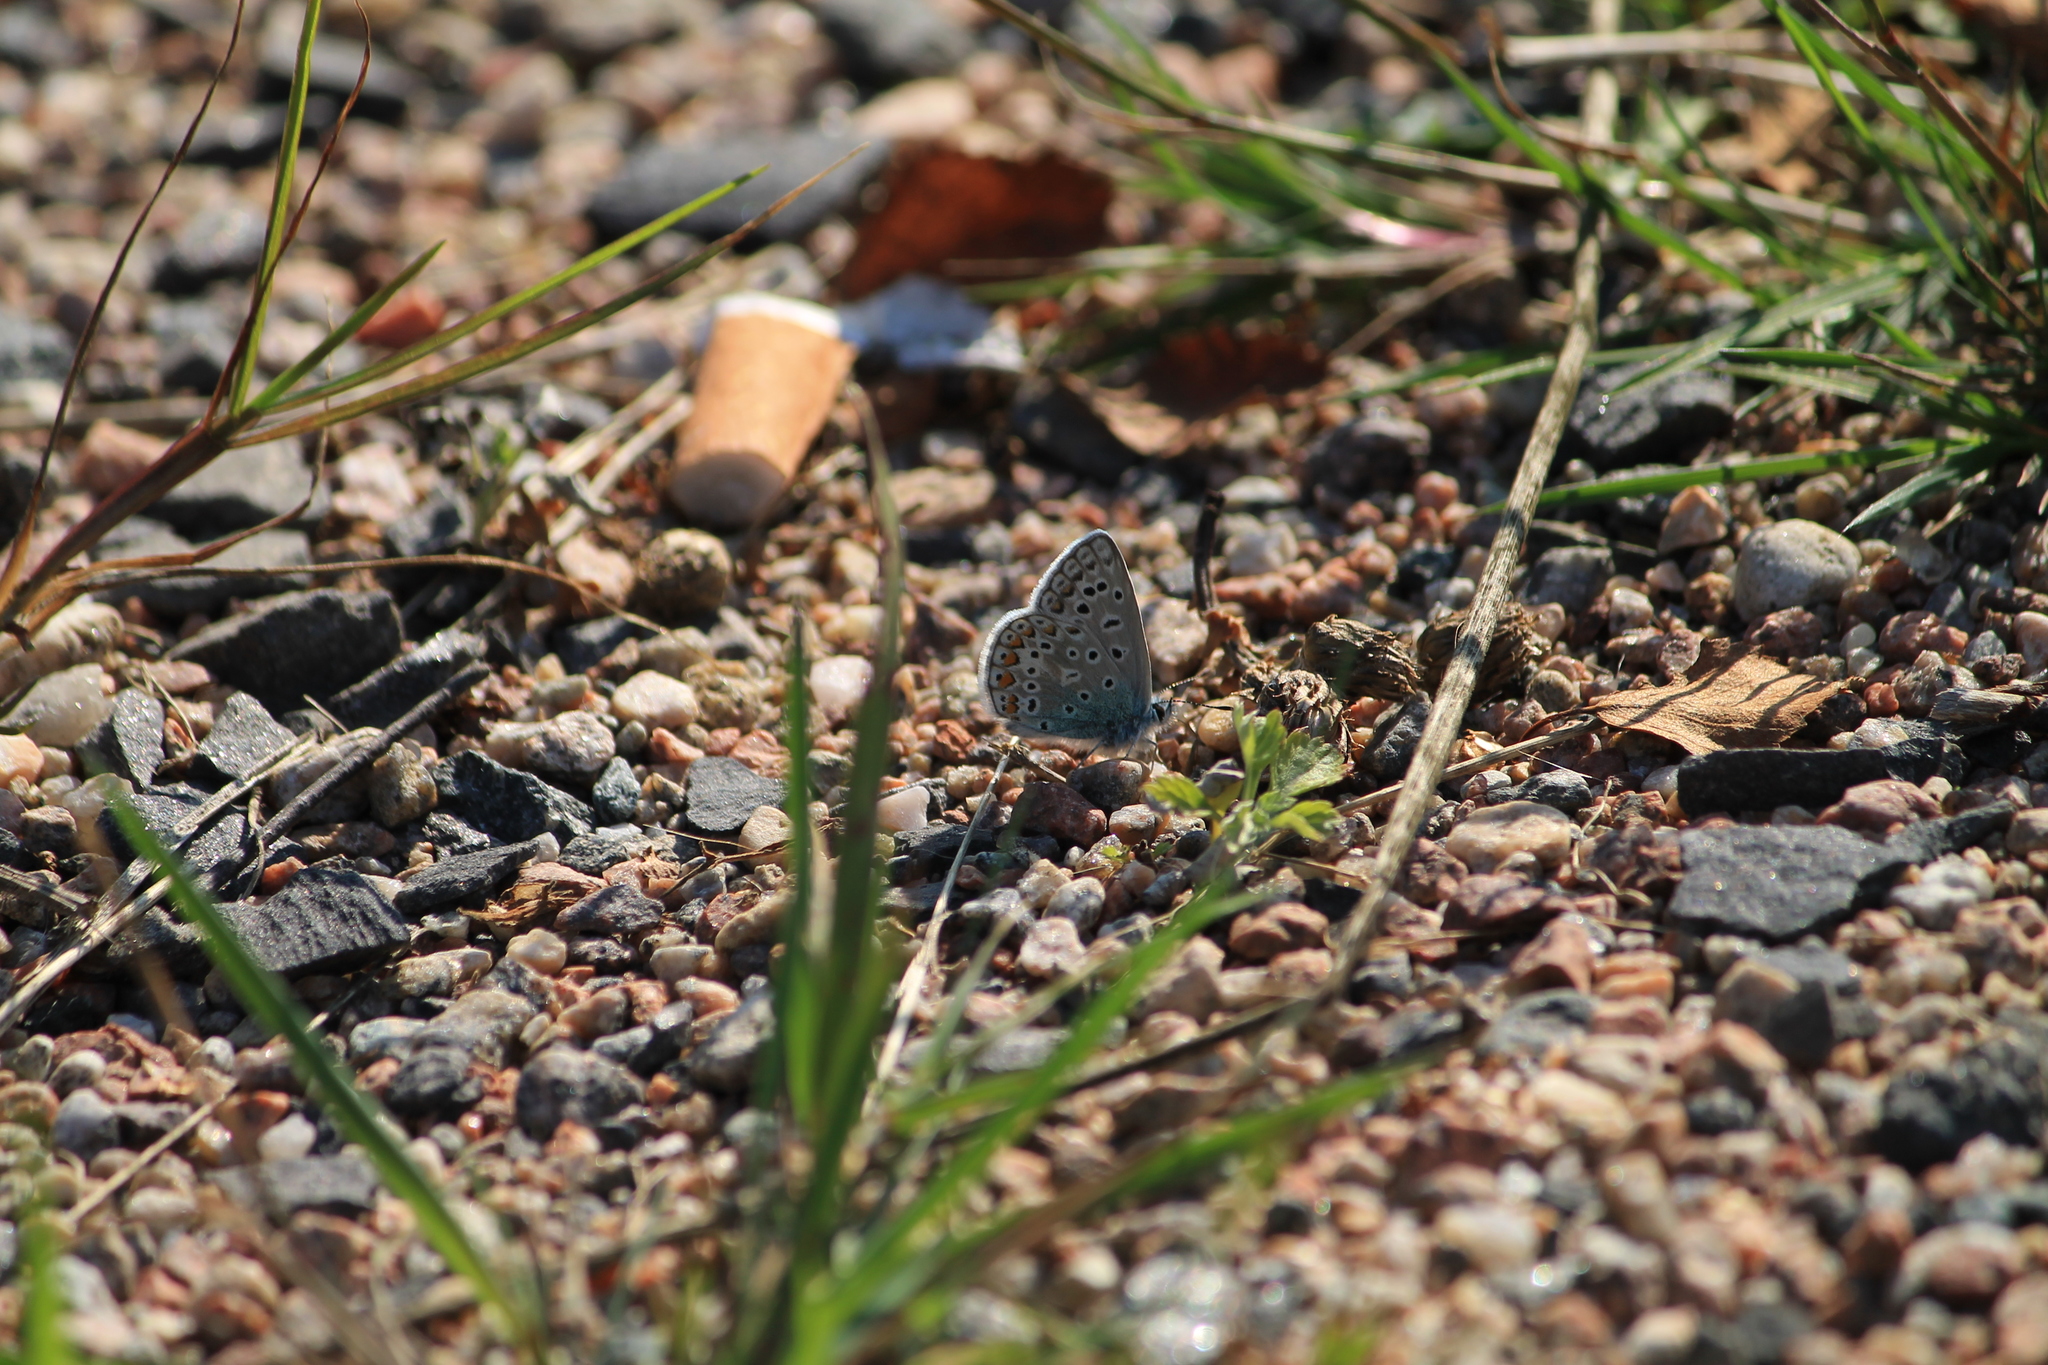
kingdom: Animalia
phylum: Arthropoda
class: Insecta
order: Lepidoptera
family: Lycaenidae
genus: Polyommatus
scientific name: Polyommatus icarus
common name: Common blue
